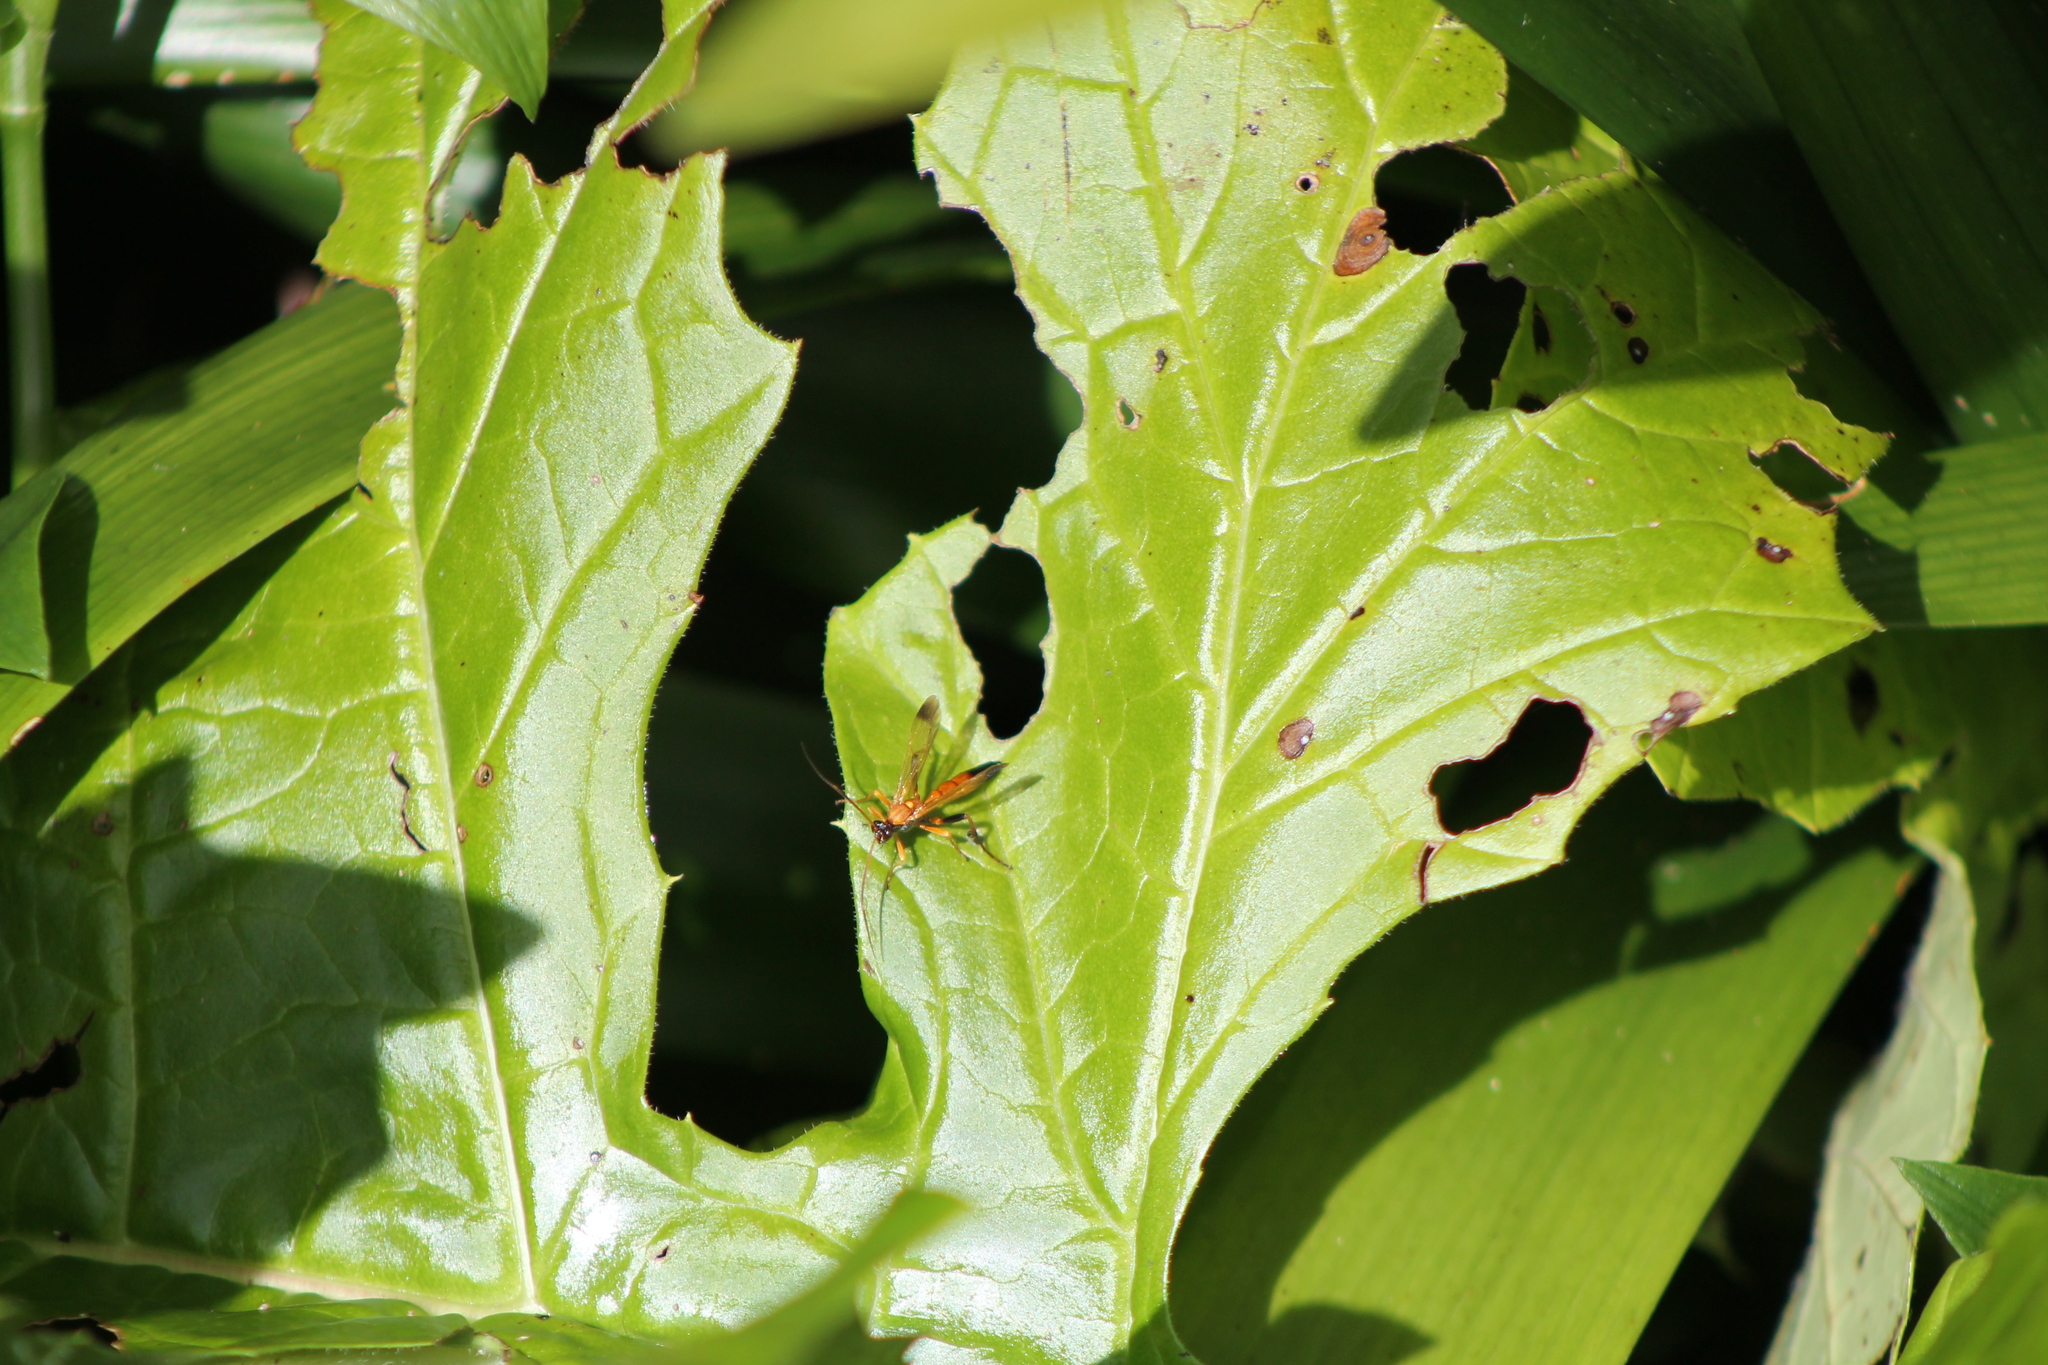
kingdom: Animalia
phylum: Arthropoda
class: Insecta
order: Hymenoptera
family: Ichneumonidae
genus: Ctenochares
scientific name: Ctenochares bicolorus
